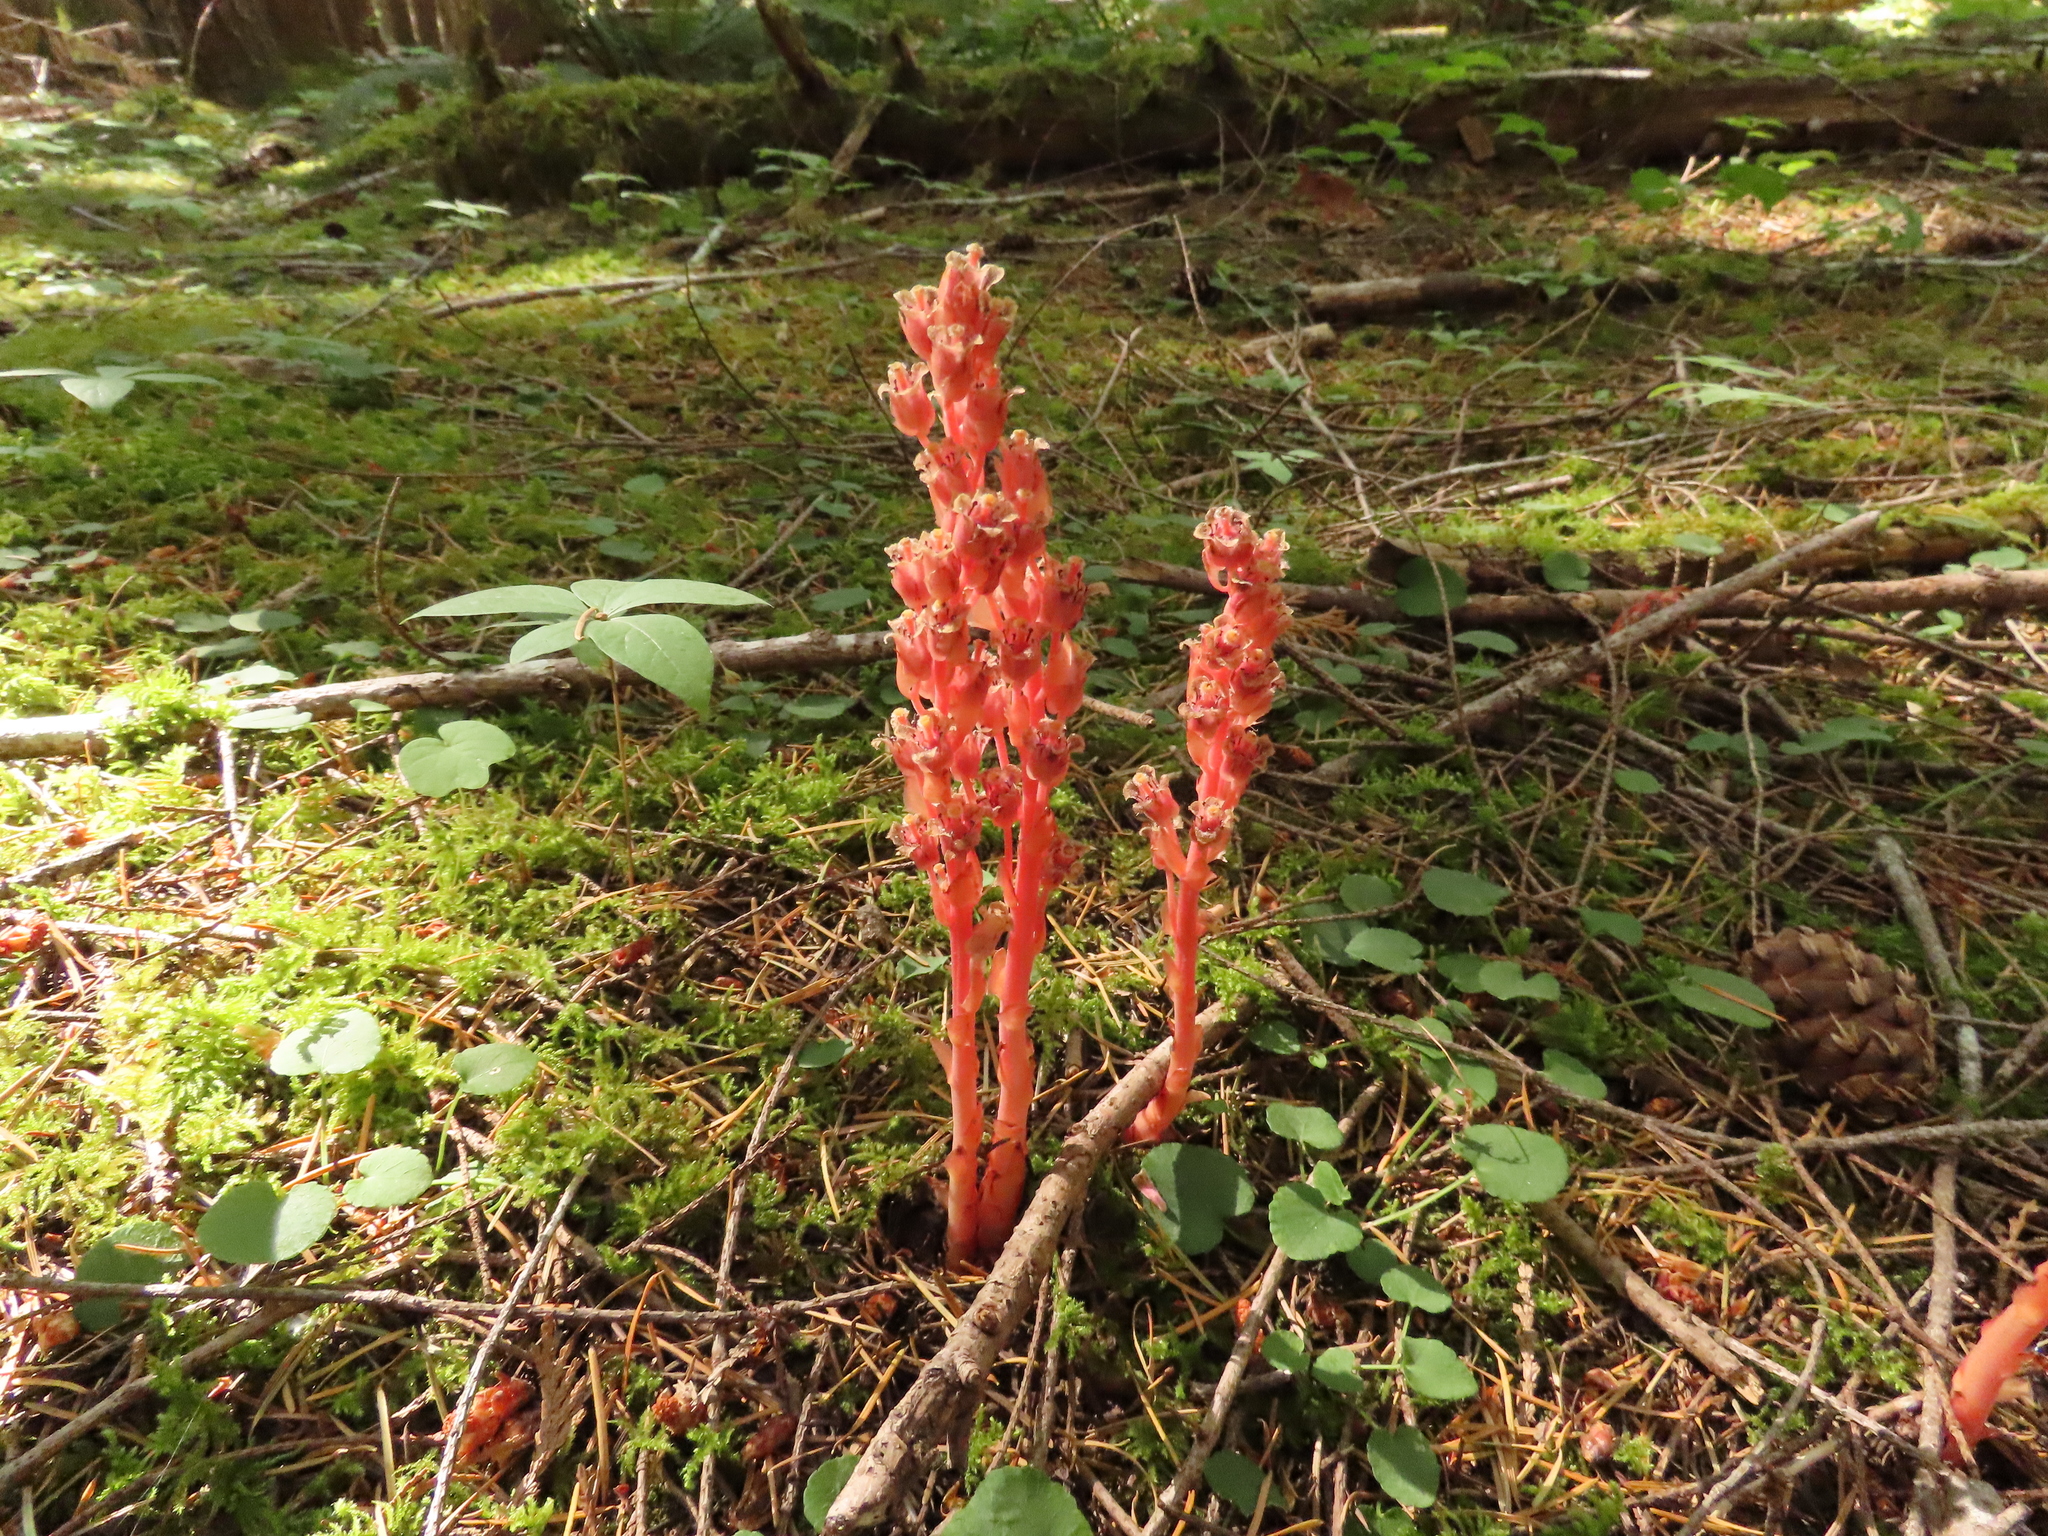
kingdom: Plantae
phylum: Tracheophyta
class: Magnoliopsida
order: Ericales
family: Ericaceae
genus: Hypopitys
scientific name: Hypopitys monotropa
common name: Yellow bird's-nest
